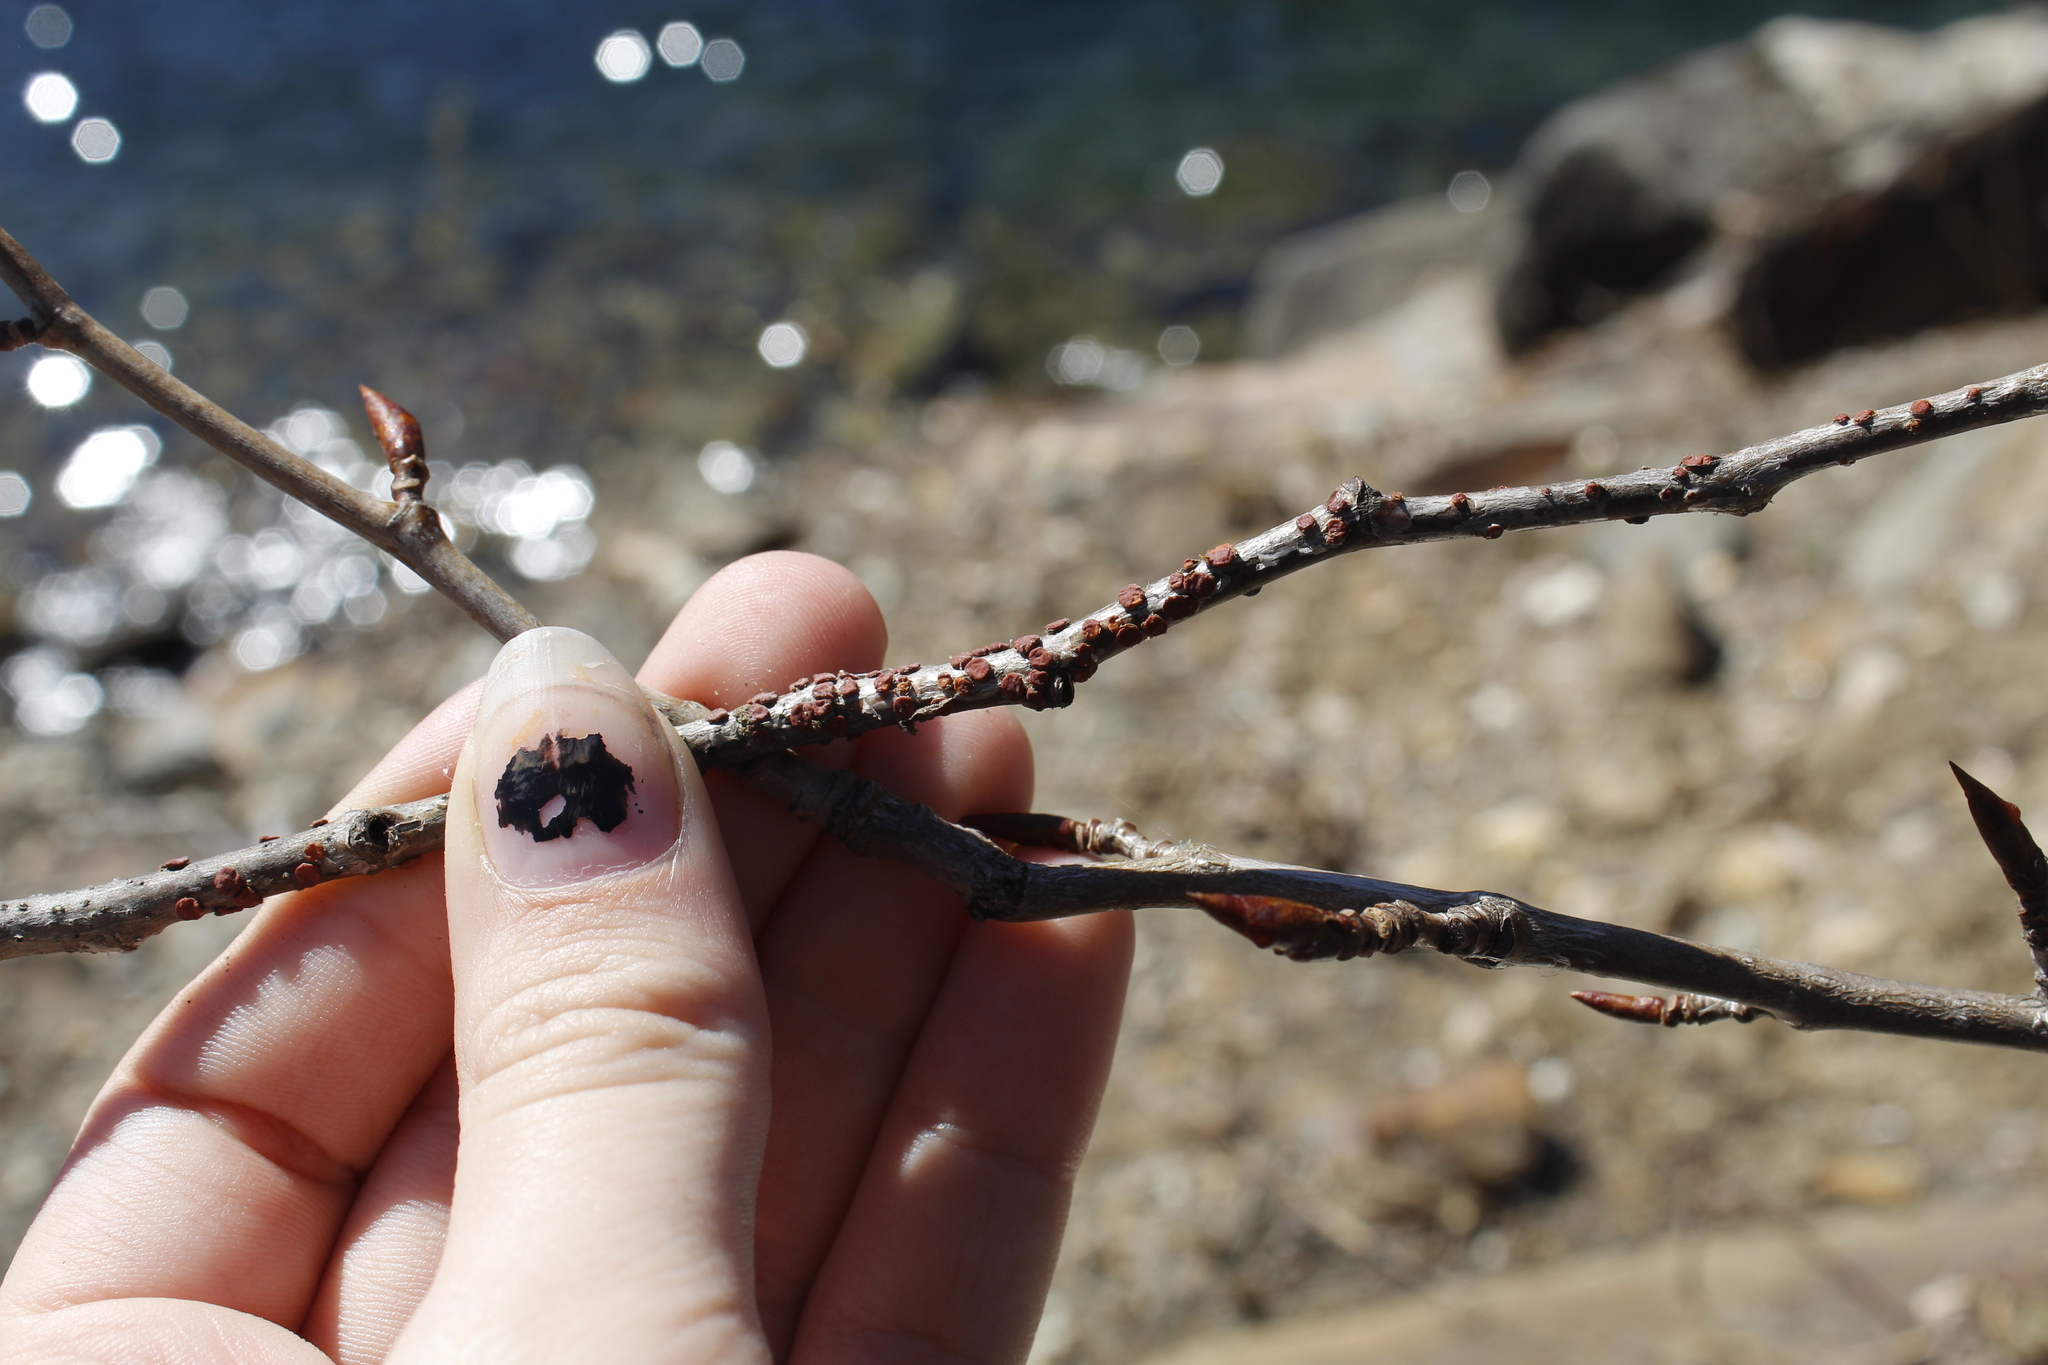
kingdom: Fungi
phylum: Basidiomycota
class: Agaricomycetes
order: Russulales
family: Peniophoraceae
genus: Peniophora
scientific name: Peniophora rufa
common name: Red tree brain fungus
